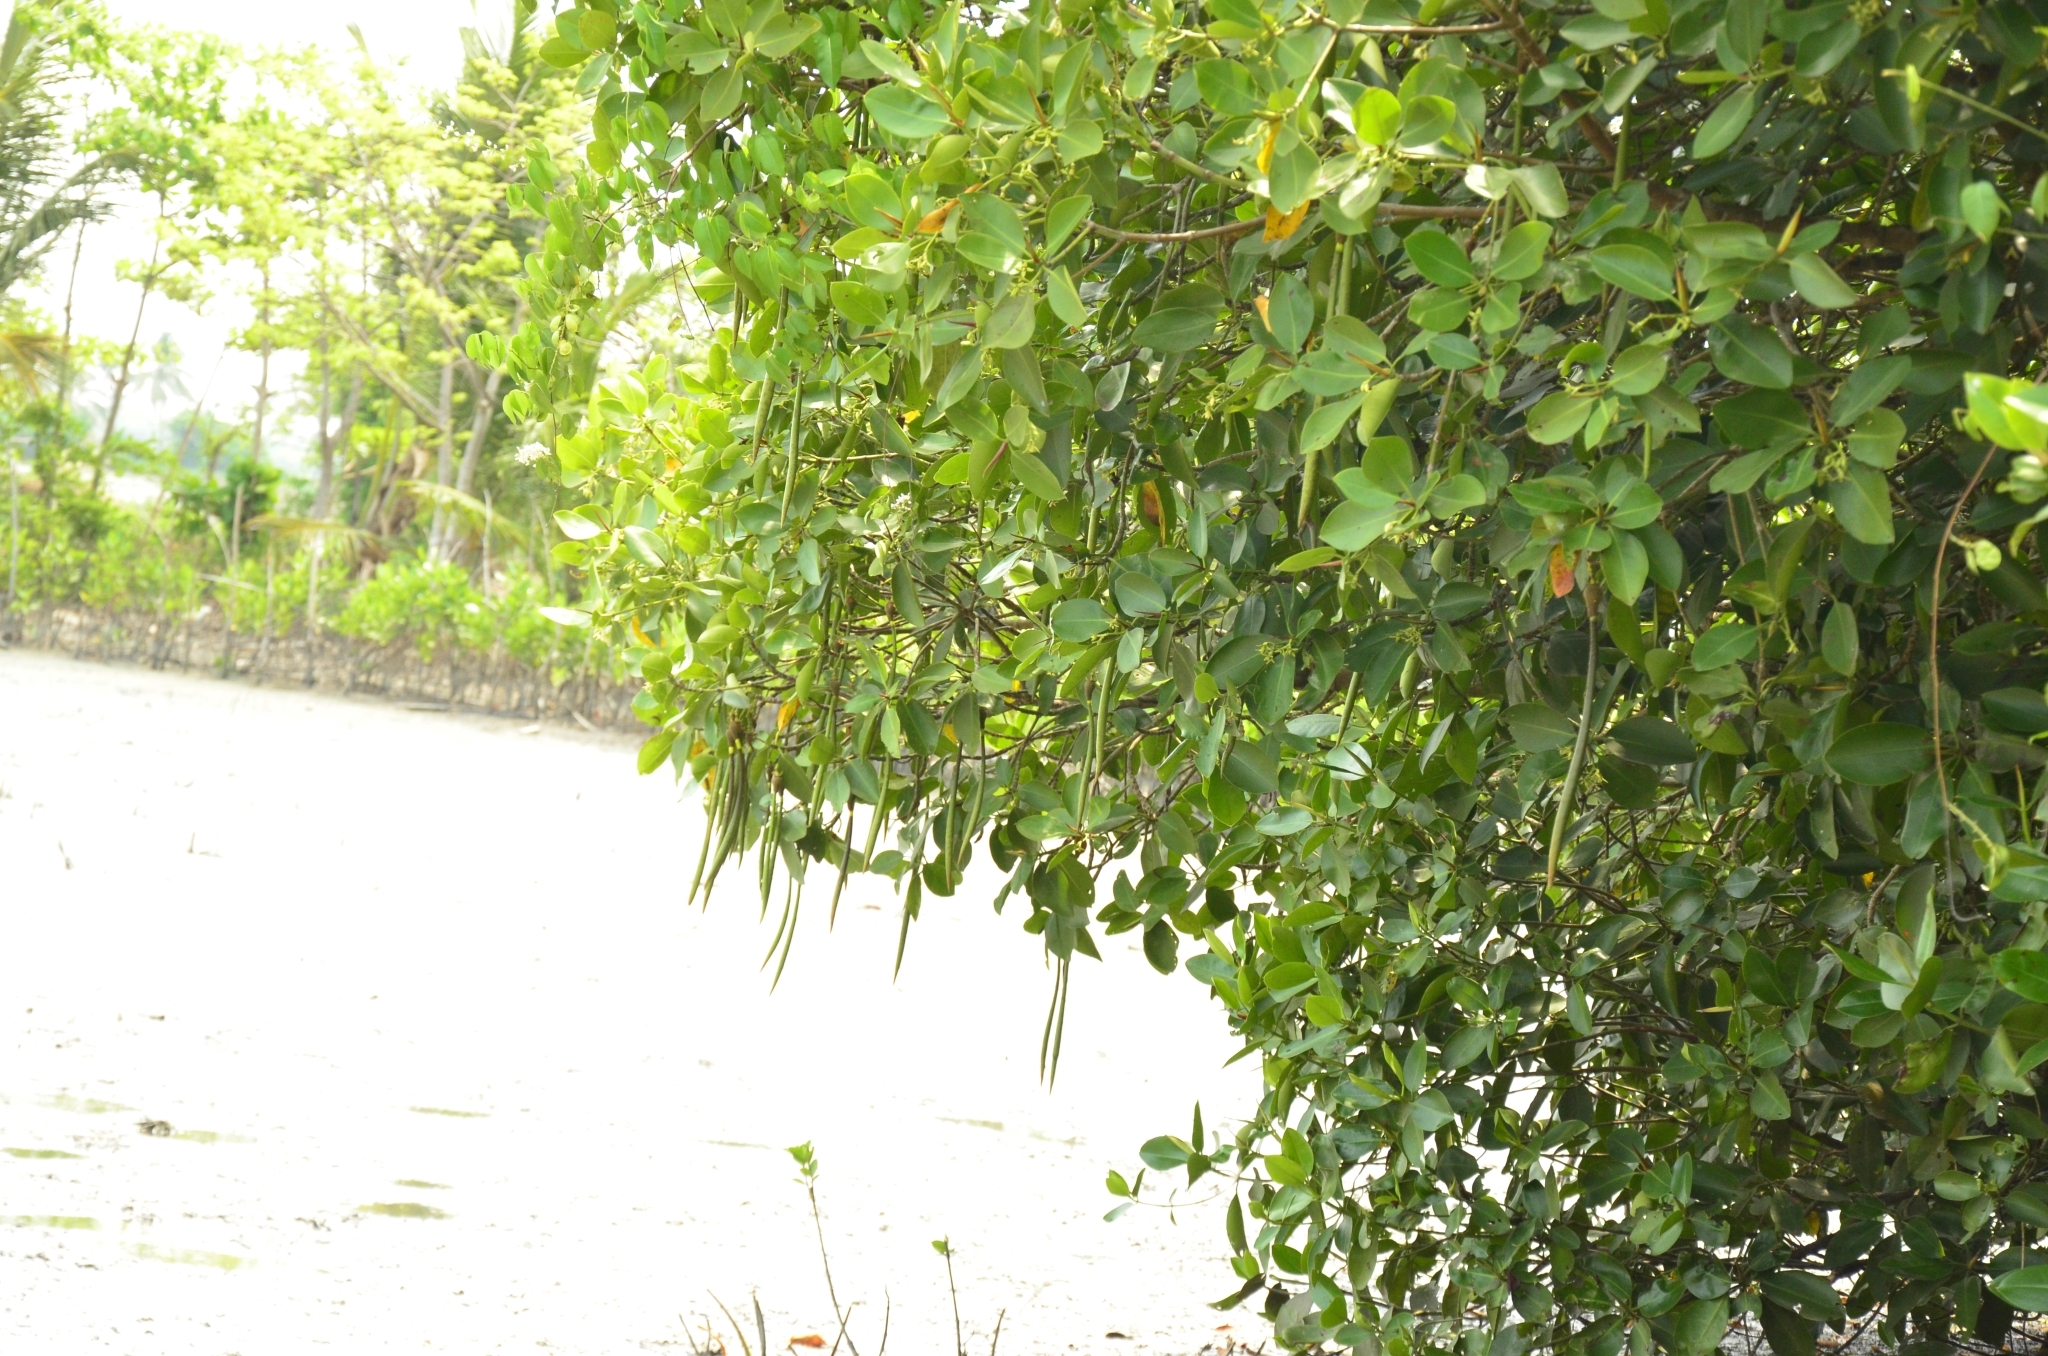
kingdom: Plantae
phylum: Tracheophyta
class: Magnoliopsida
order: Malpighiales
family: Rhizophoraceae
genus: Rhizophora
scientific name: Rhizophora mangle
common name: Red mangrove
